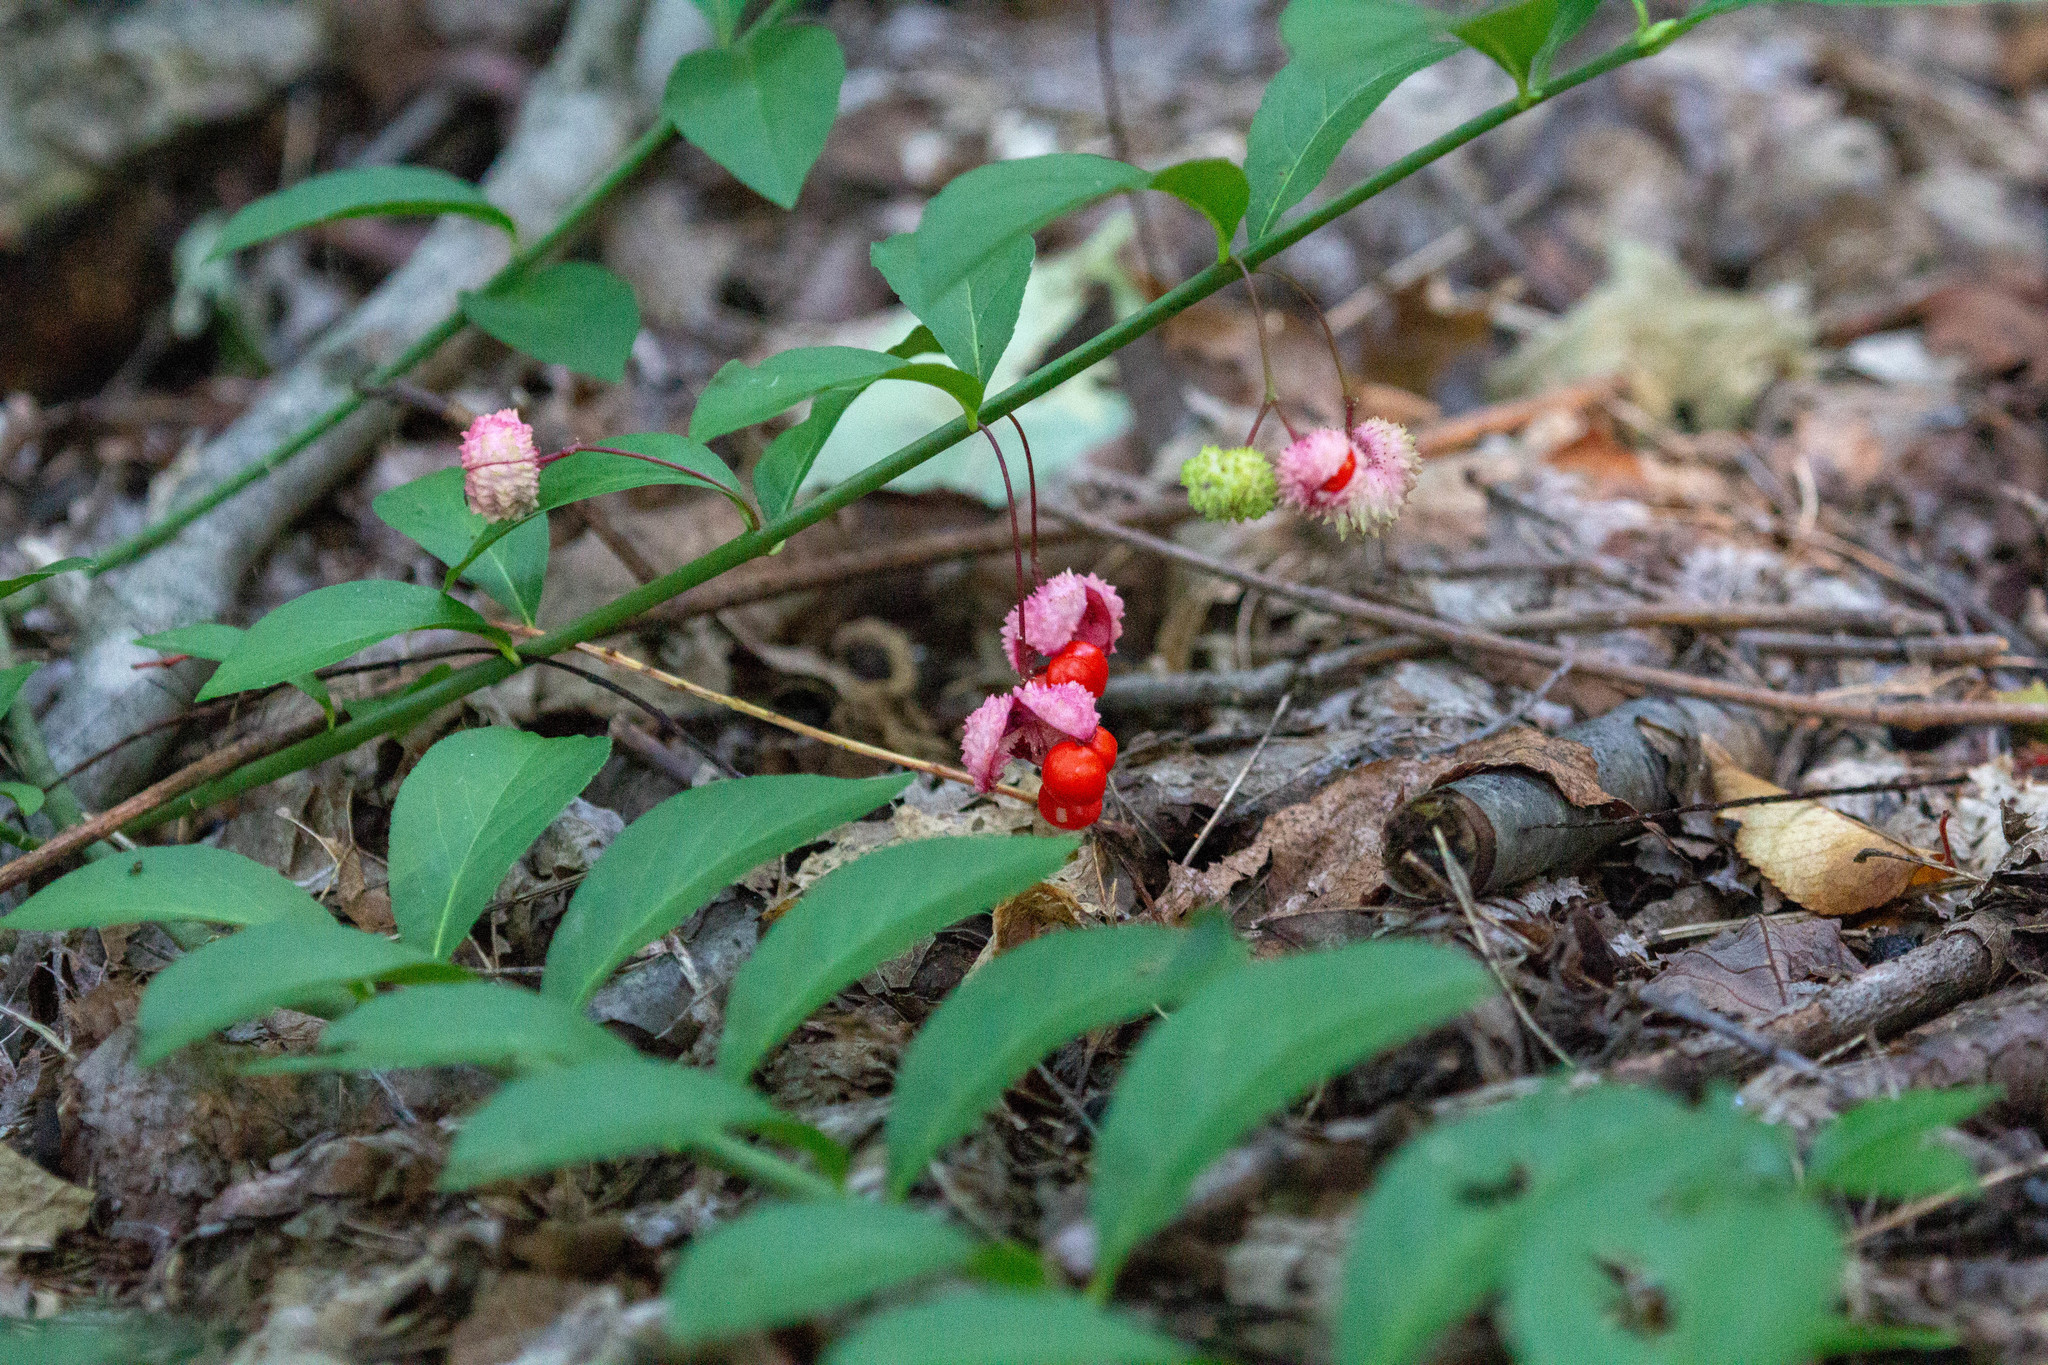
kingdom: Plantae
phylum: Tracheophyta
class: Magnoliopsida
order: Celastrales
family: Celastraceae
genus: Euonymus
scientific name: Euonymus obovatus
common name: Running strawberry-bush
